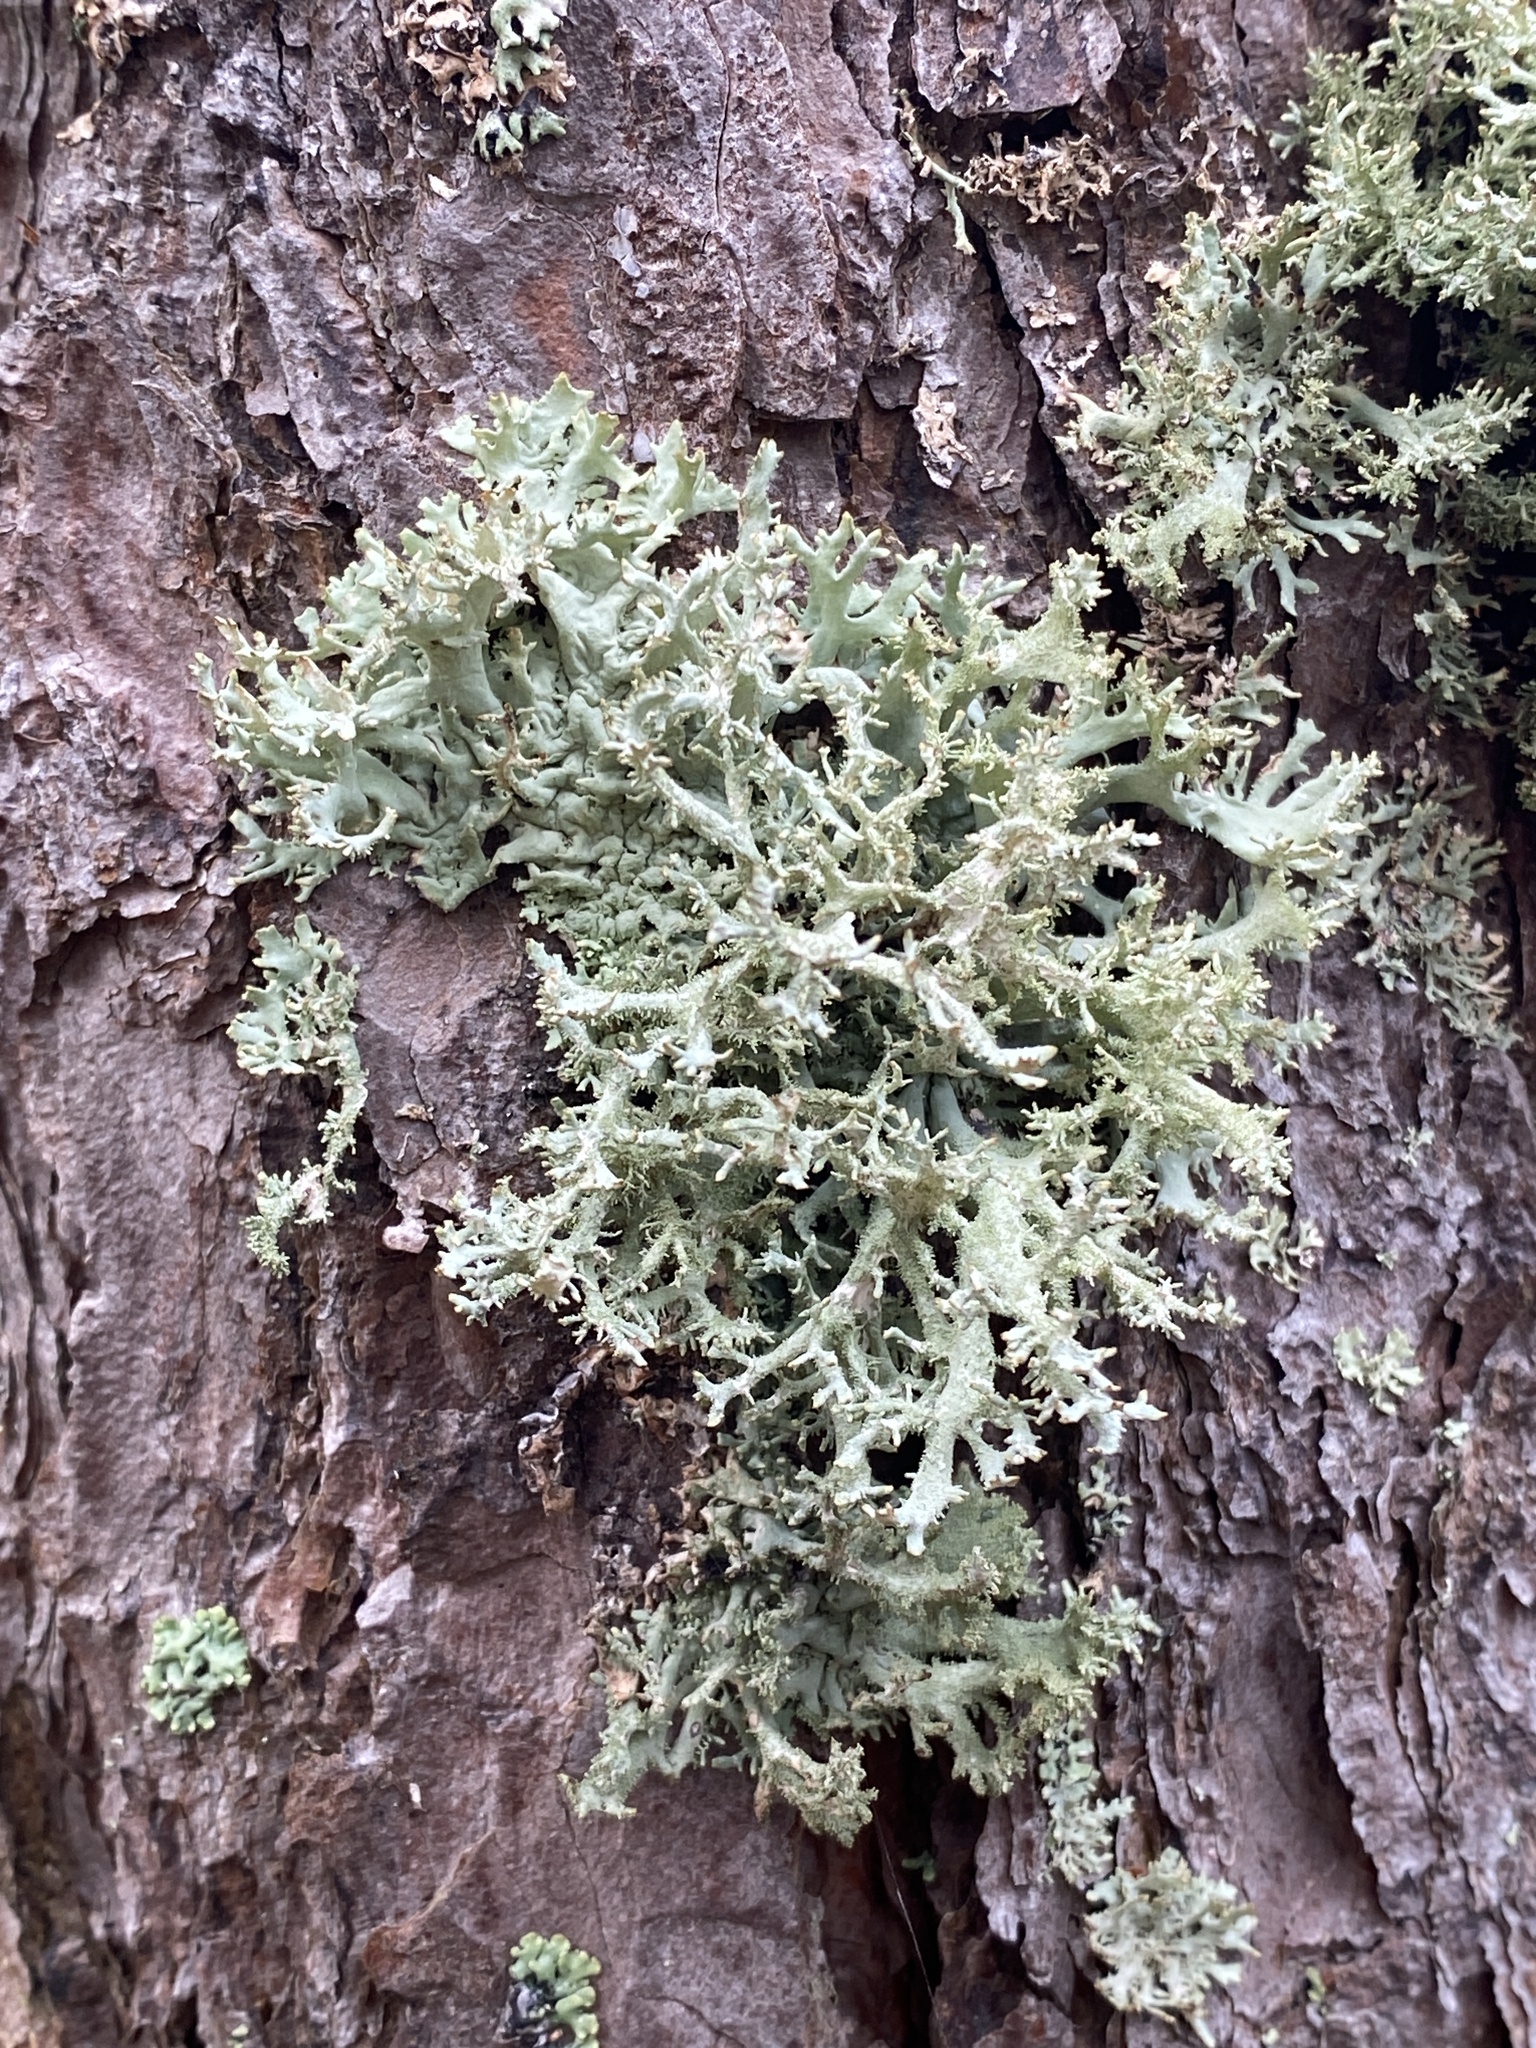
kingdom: Fungi
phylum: Ascomycota
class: Lecanoromycetes
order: Lecanorales
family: Parmeliaceae
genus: Pseudevernia
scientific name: Pseudevernia furfuracea
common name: Tree moss
